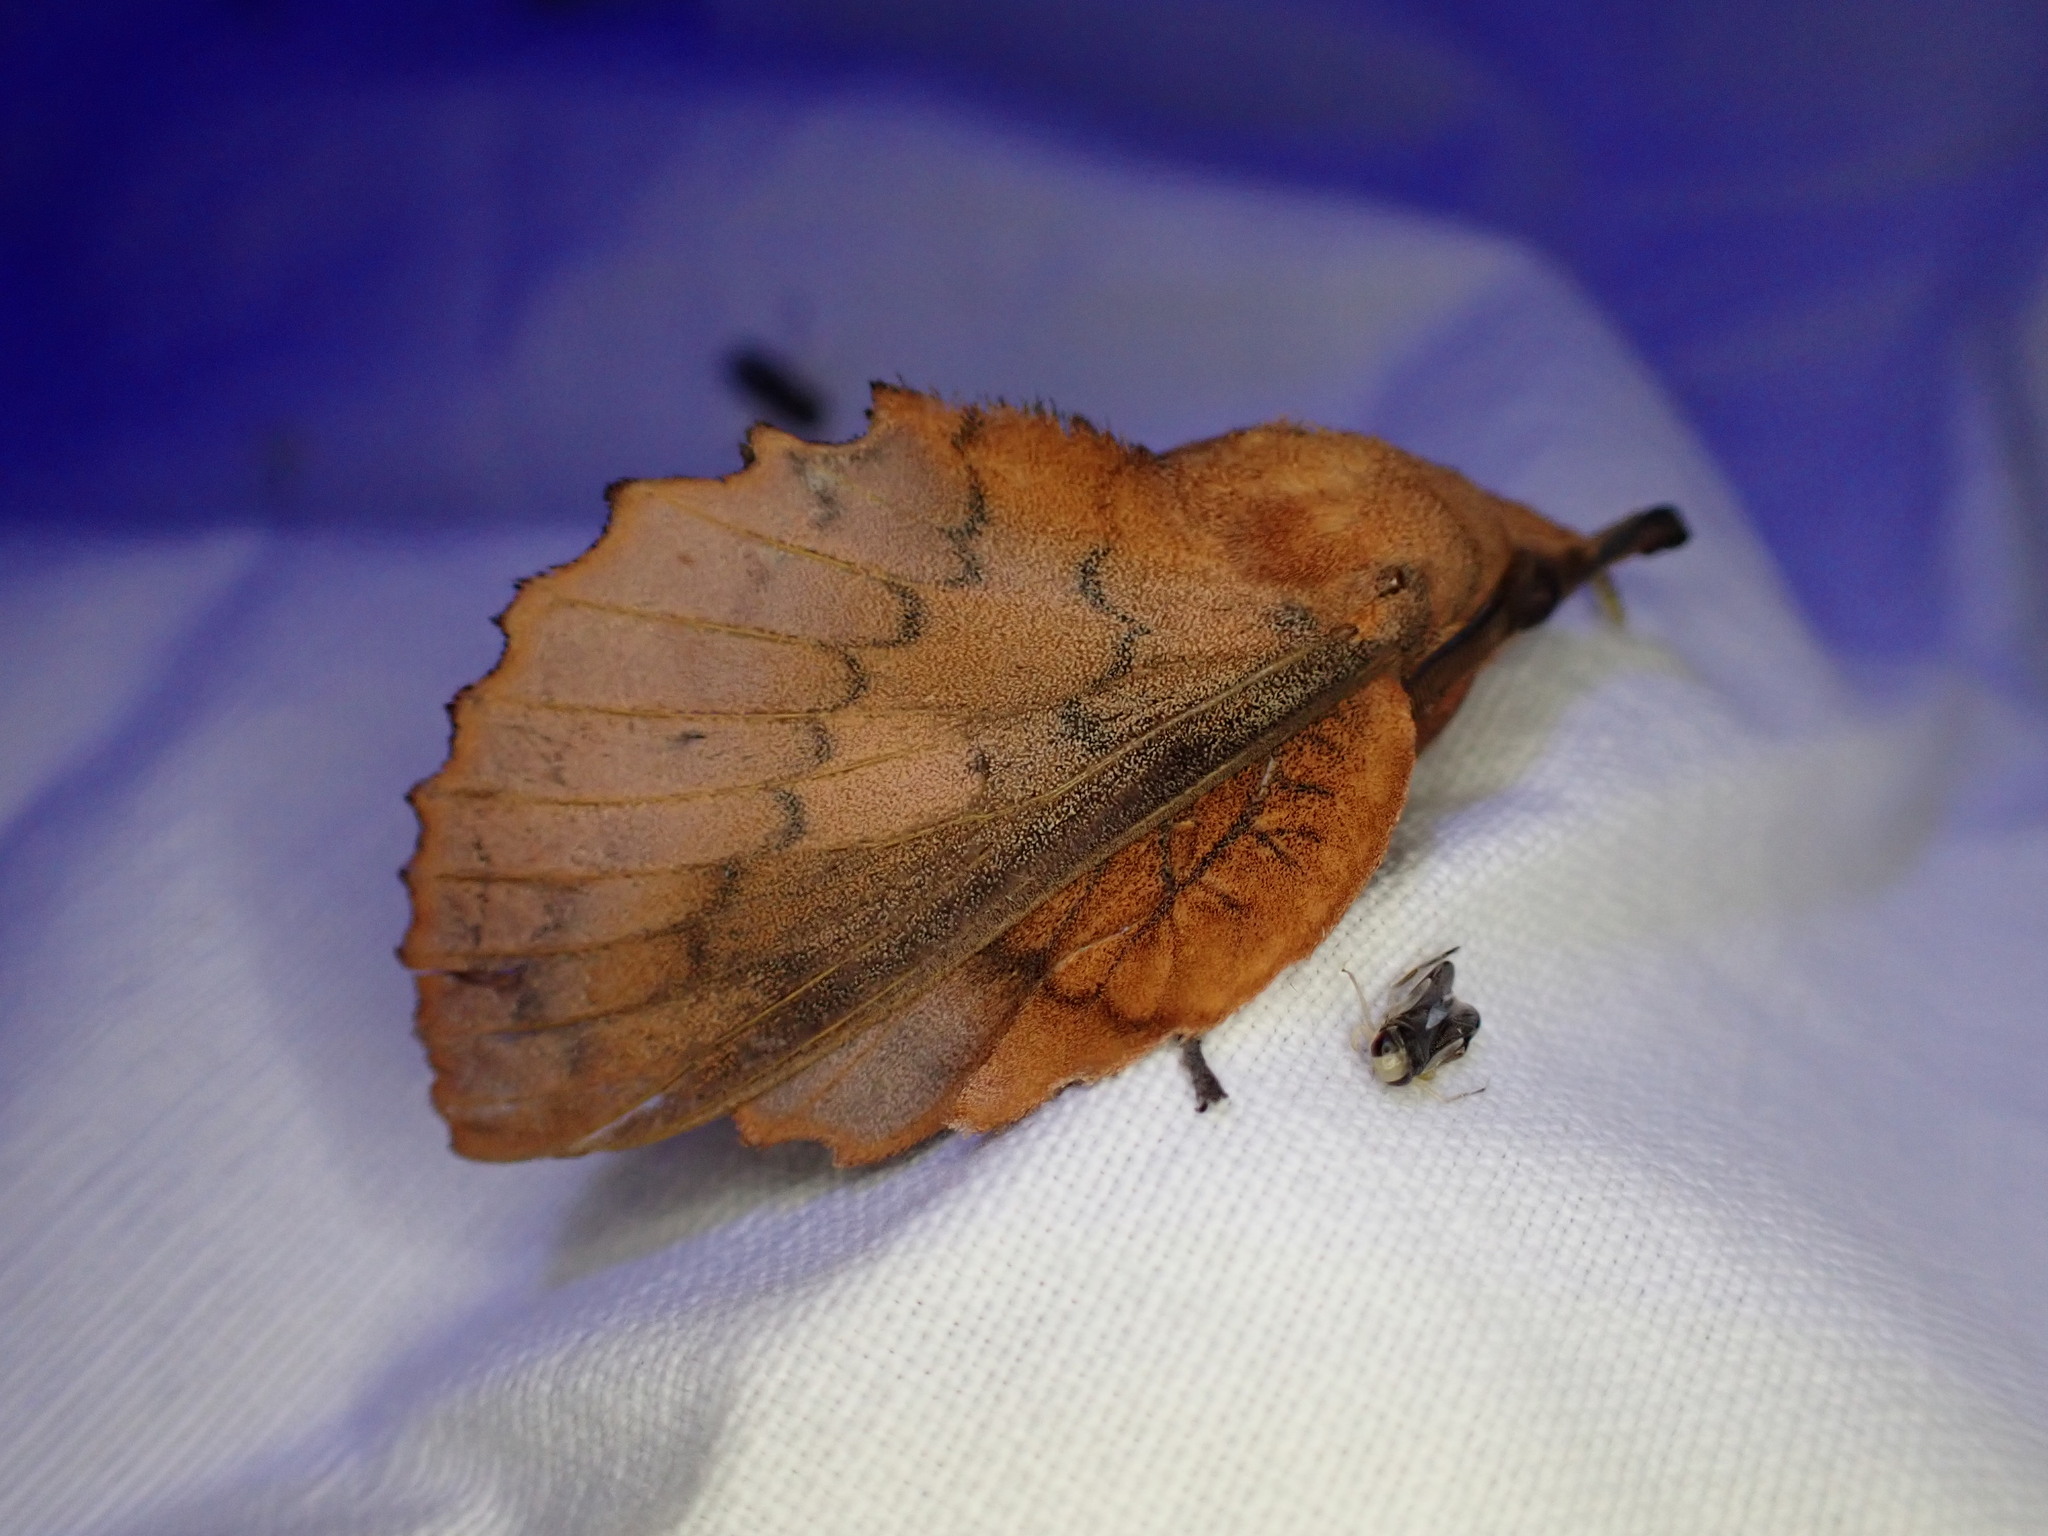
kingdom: Animalia
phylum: Arthropoda
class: Insecta
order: Lepidoptera
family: Lasiocampidae
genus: Gastropacha
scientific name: Gastropacha quercifolia
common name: Lappet
